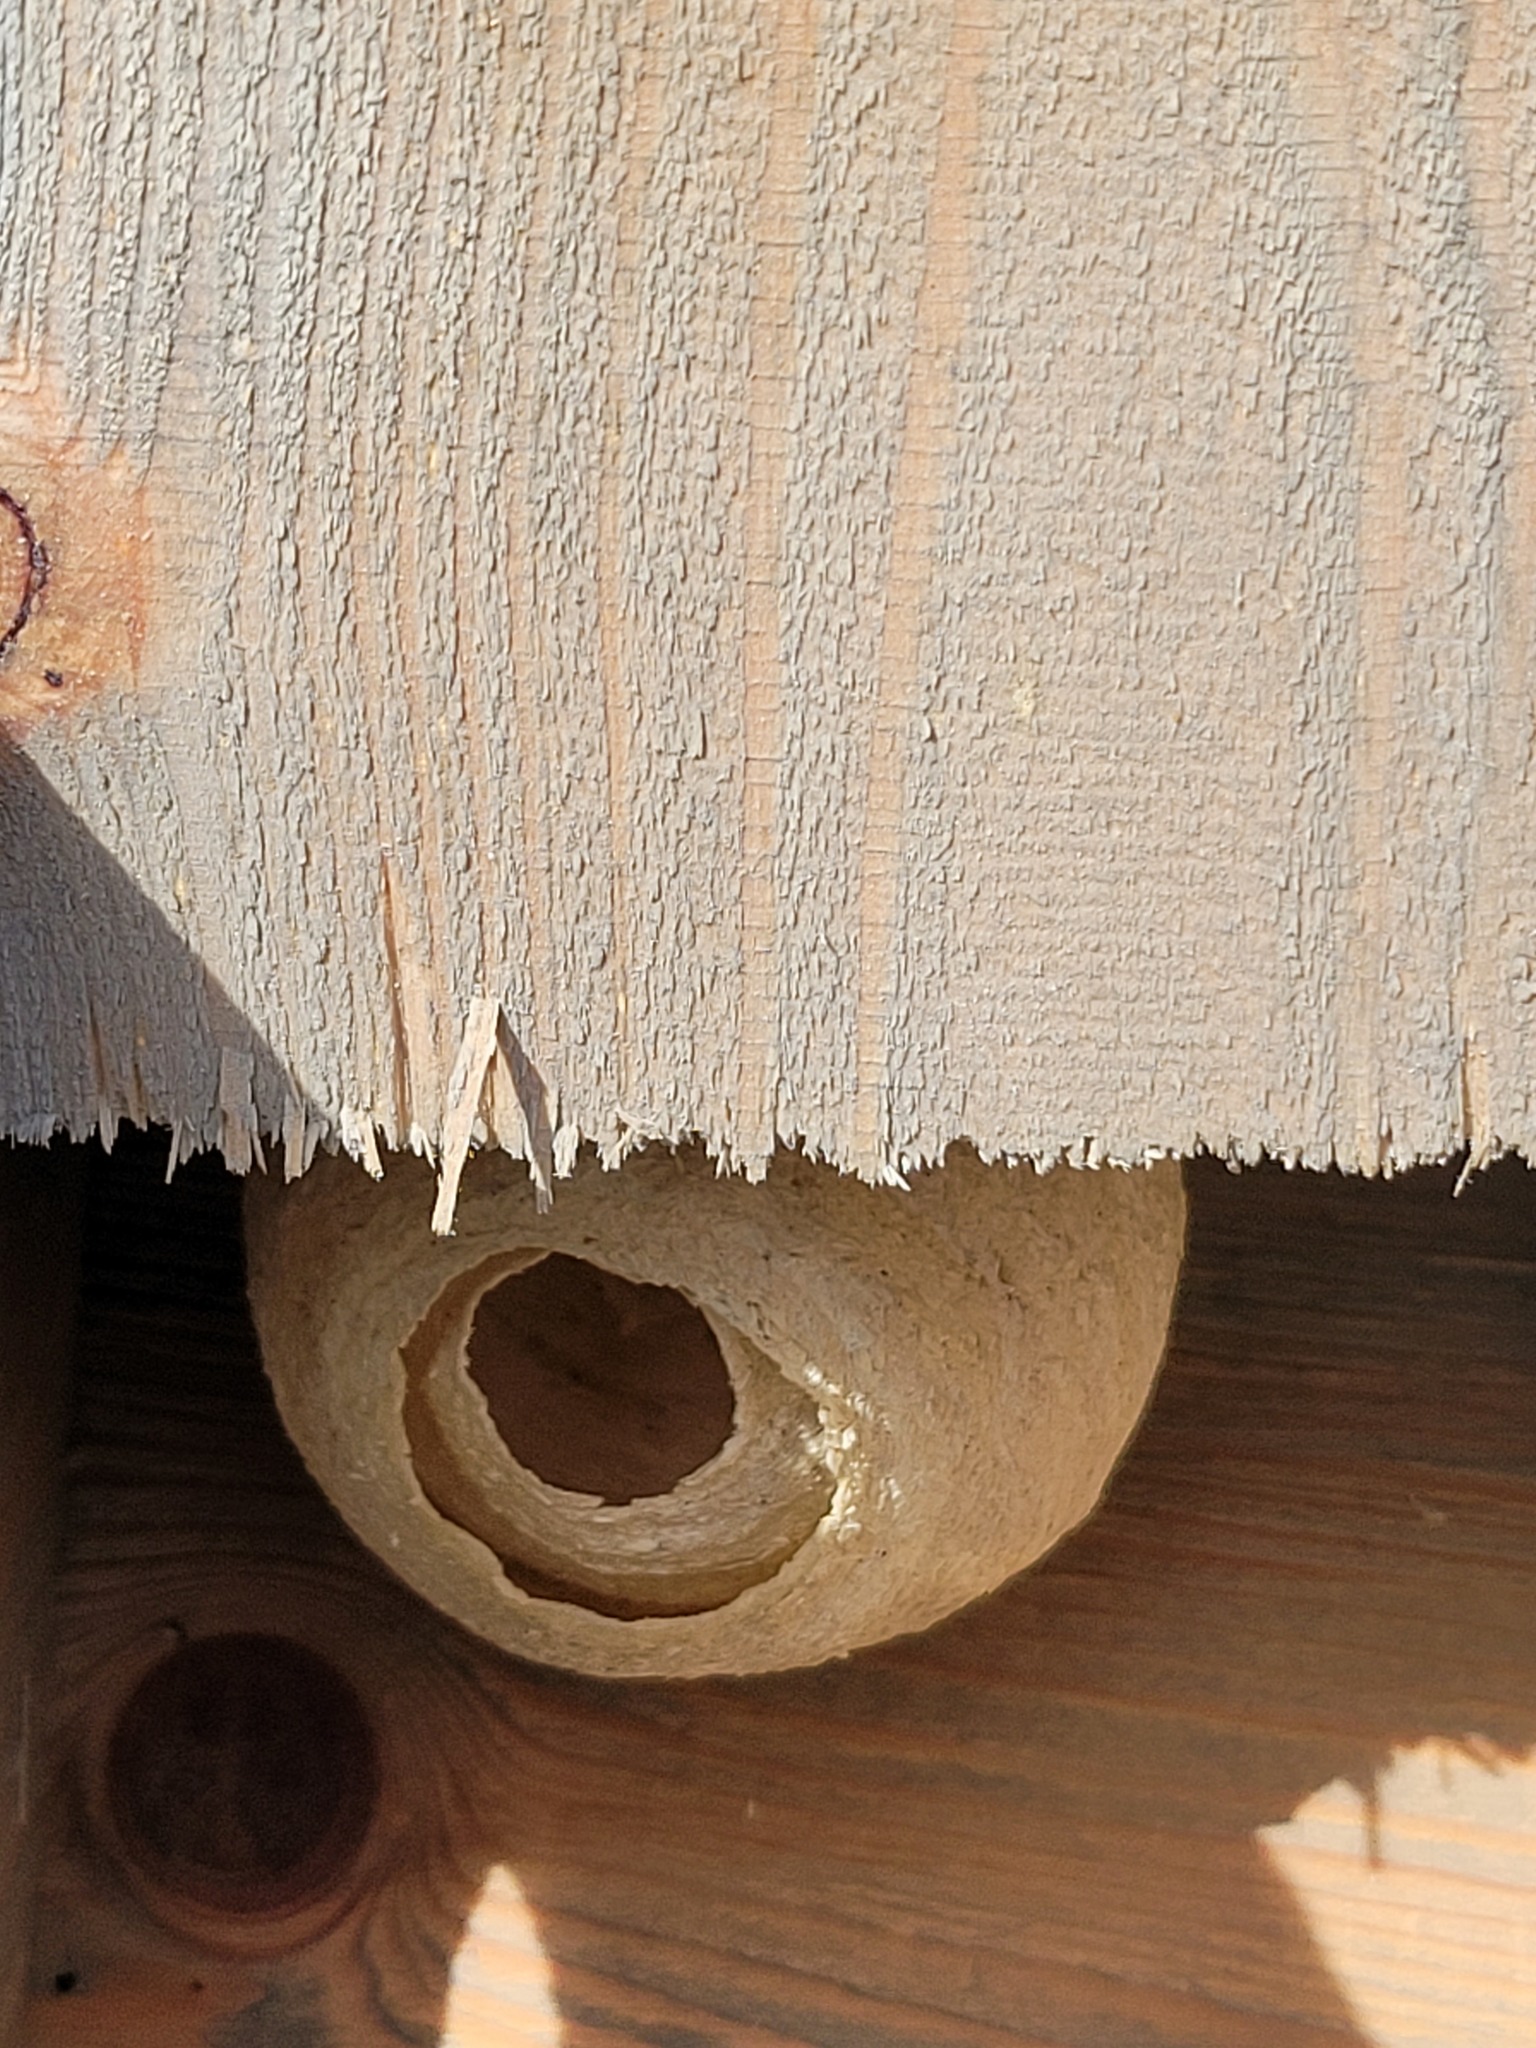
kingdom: Animalia
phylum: Arthropoda
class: Insecta
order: Hymenoptera
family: Vespidae
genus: Vespa
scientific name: Vespa velutina
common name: Asian hornet
